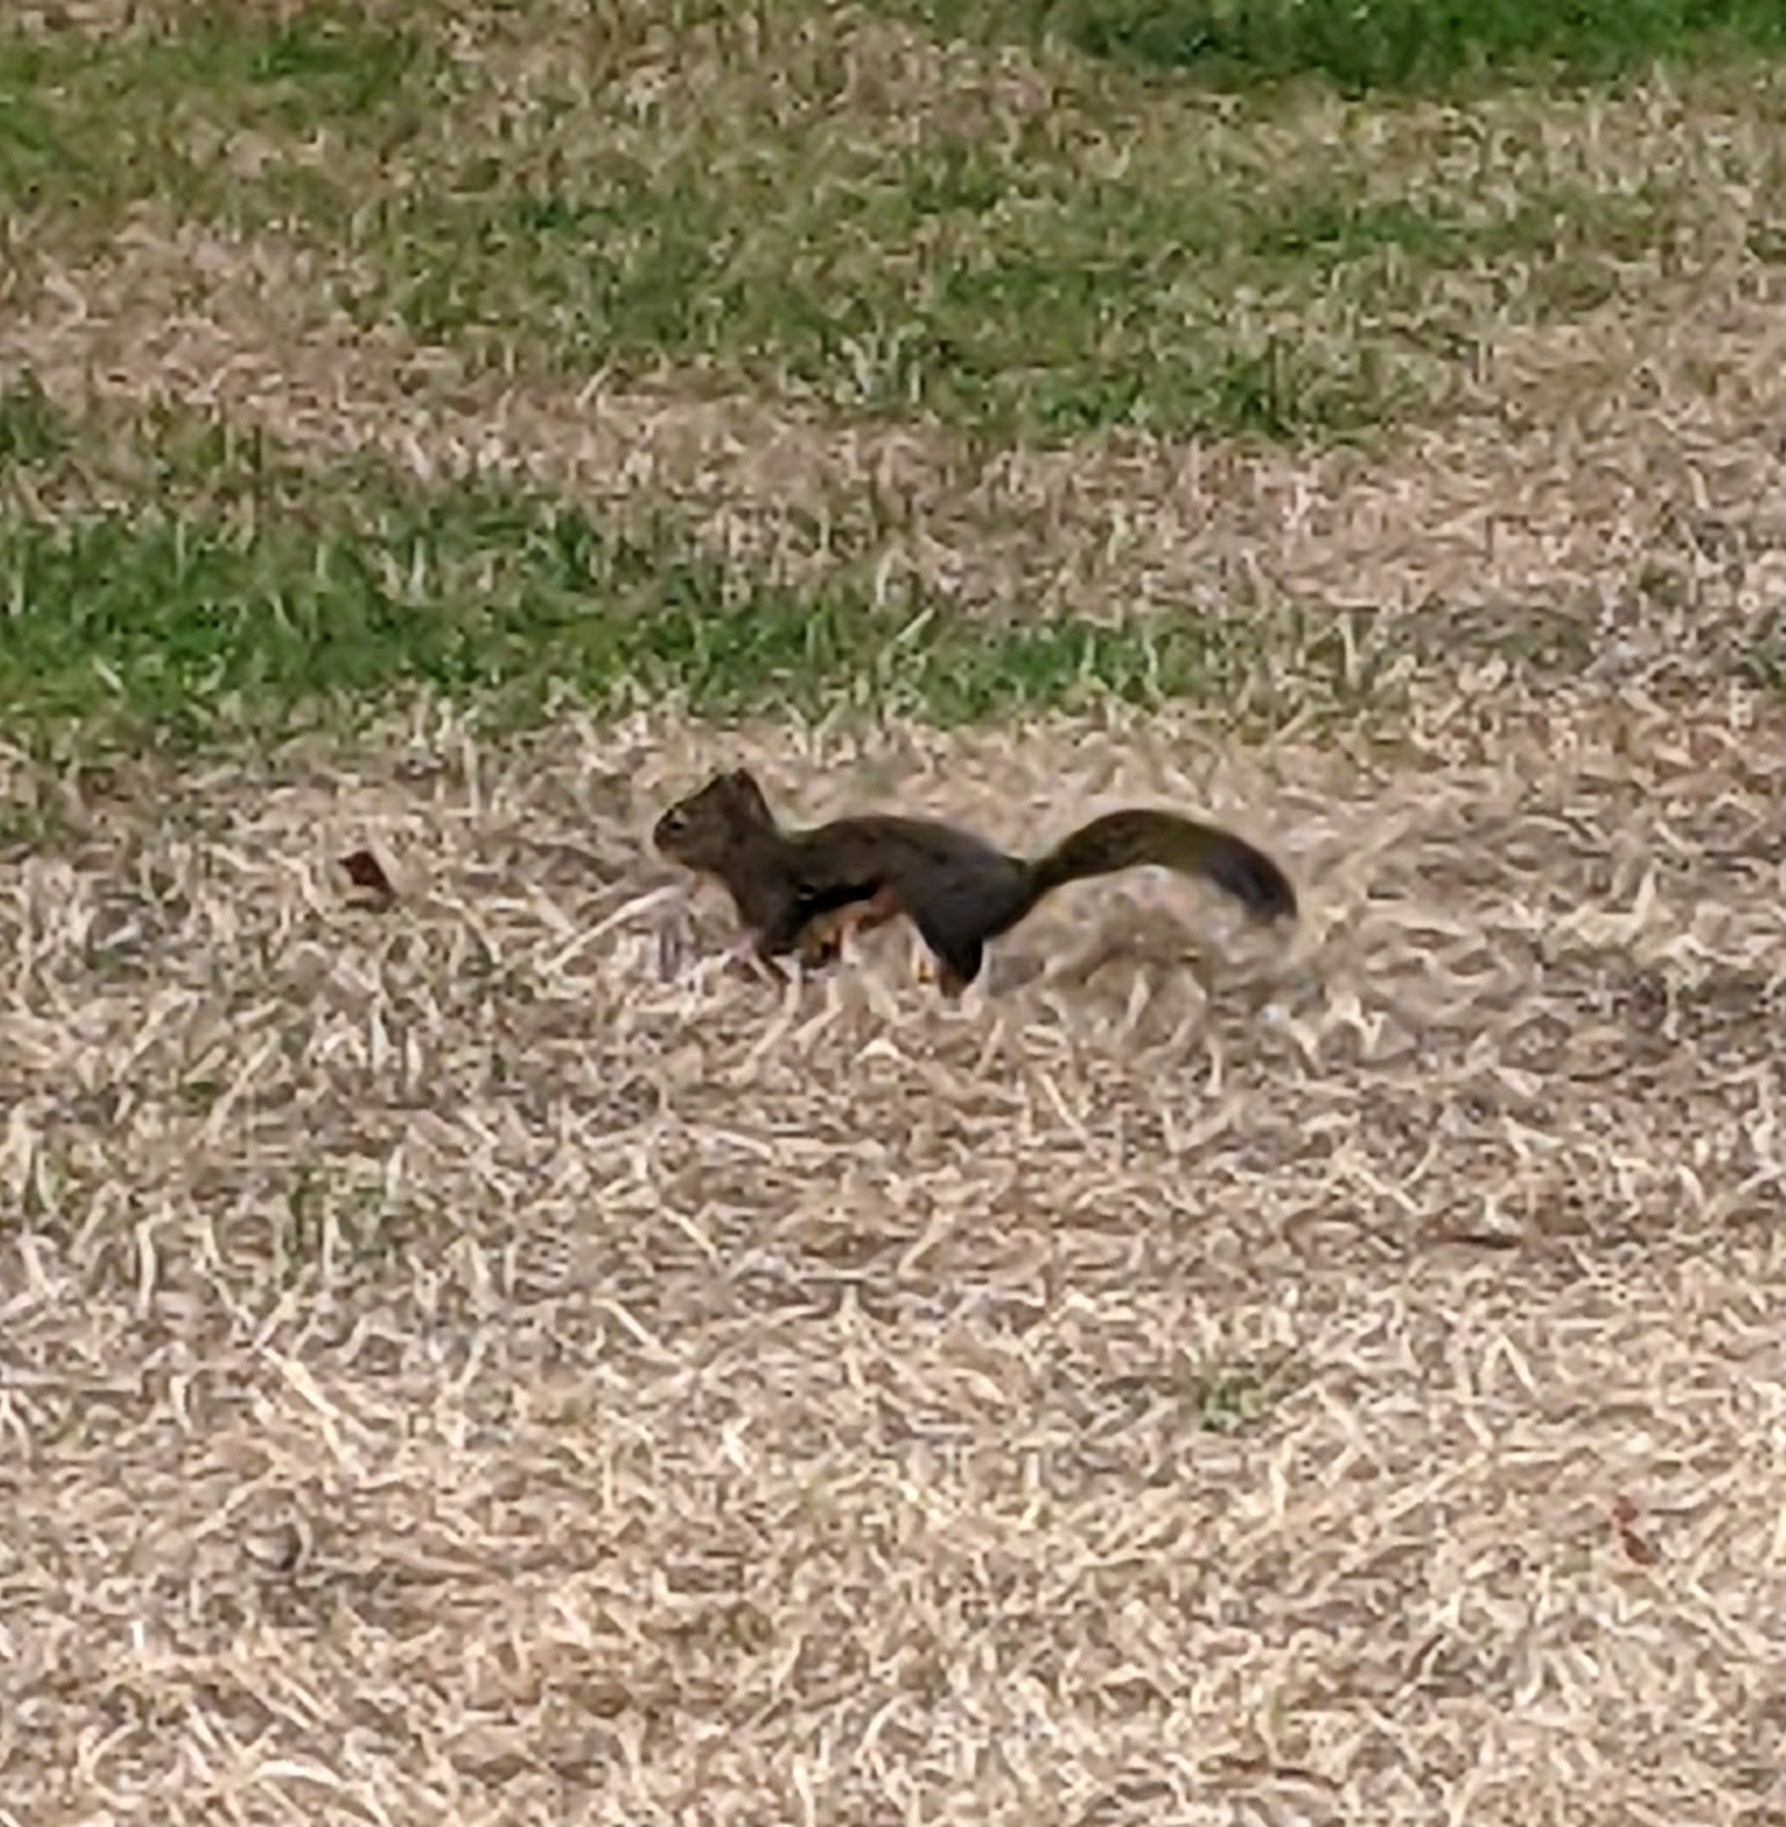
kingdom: Animalia
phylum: Chordata
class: Mammalia
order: Rodentia
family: Sciuridae
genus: Tamiasciurus
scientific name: Tamiasciurus douglasii
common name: Douglas's squirrel
